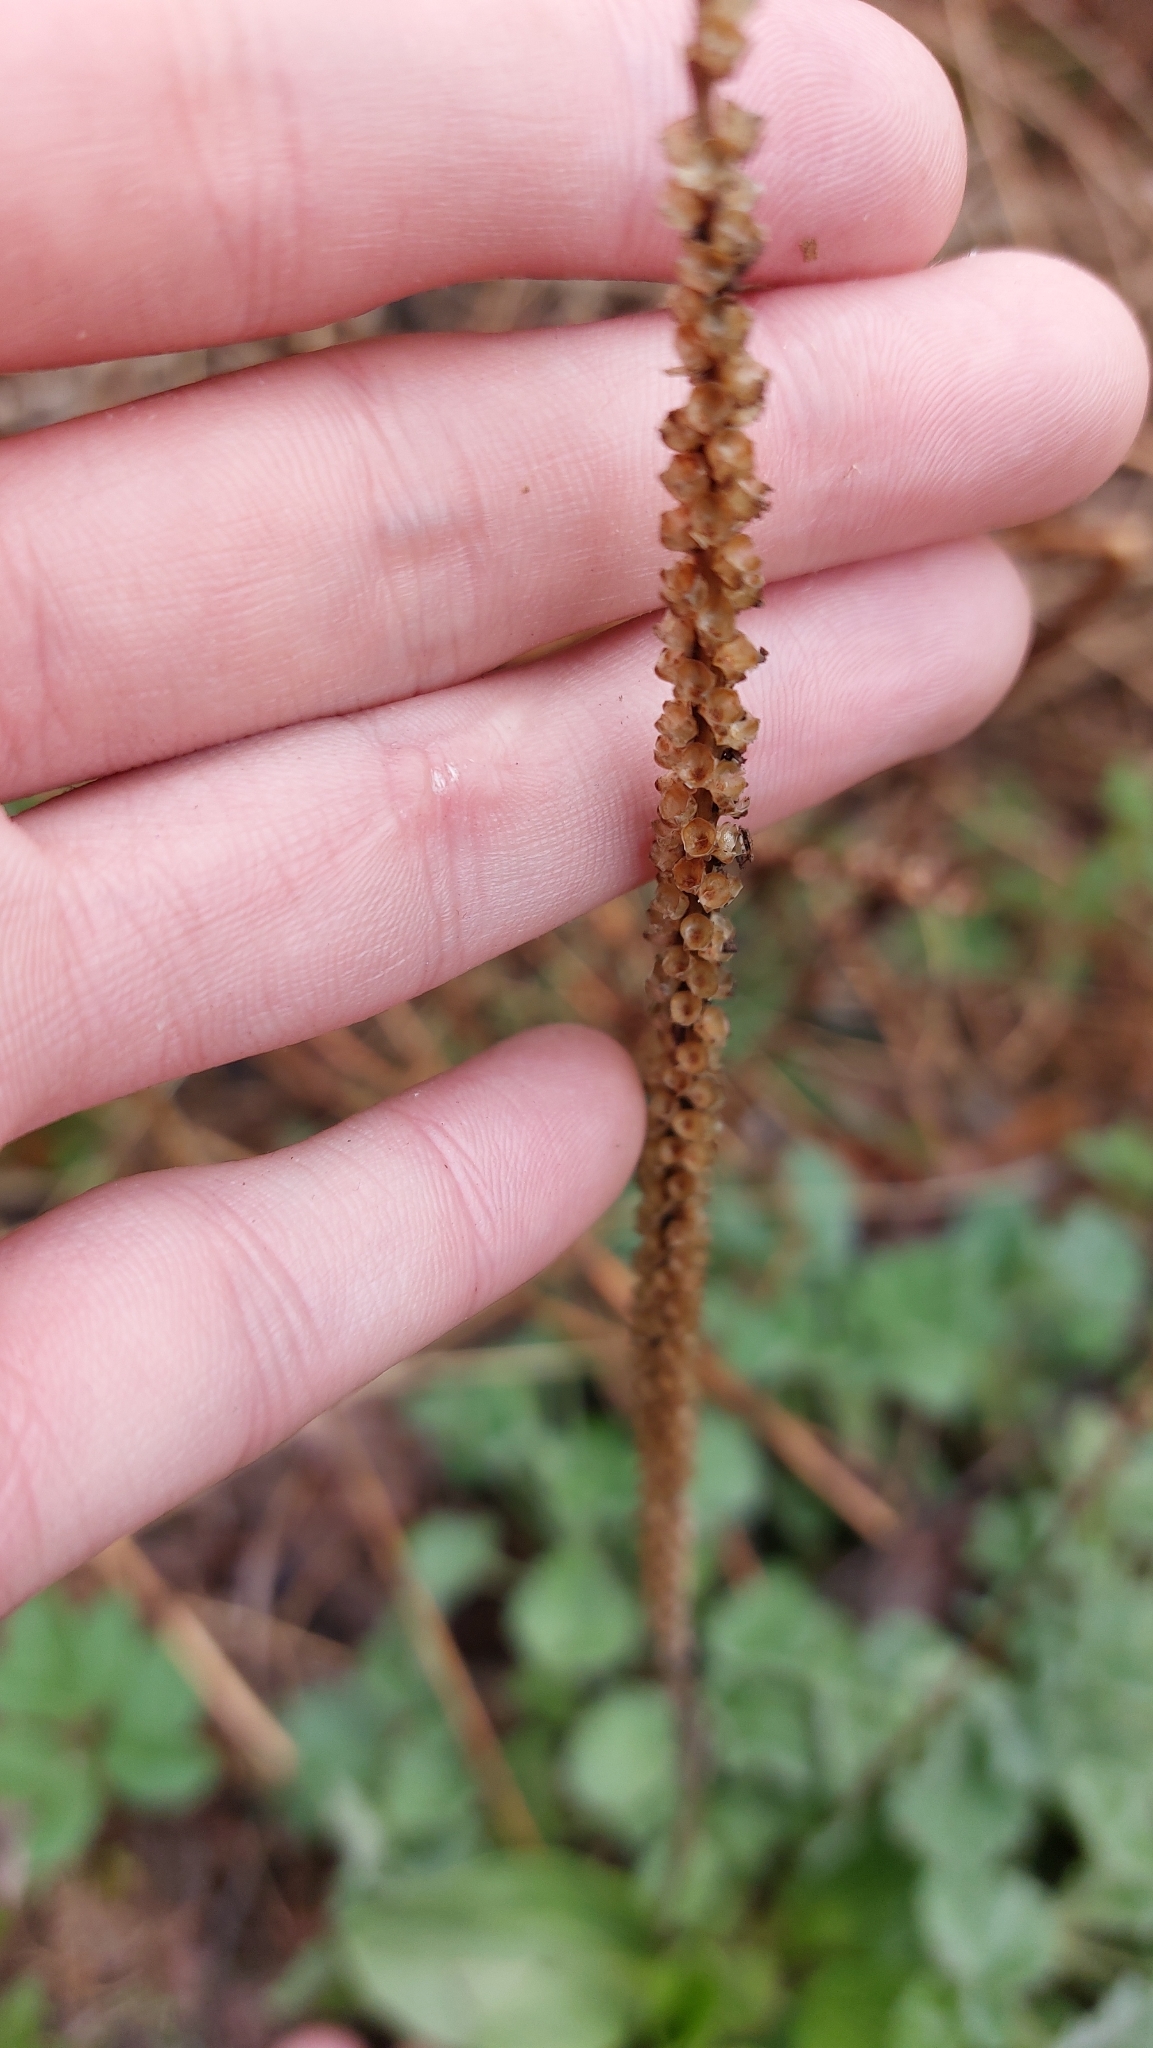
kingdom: Plantae
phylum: Tracheophyta
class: Magnoliopsida
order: Lamiales
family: Plantaginaceae
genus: Plantago
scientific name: Plantago major
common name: Common plantain
